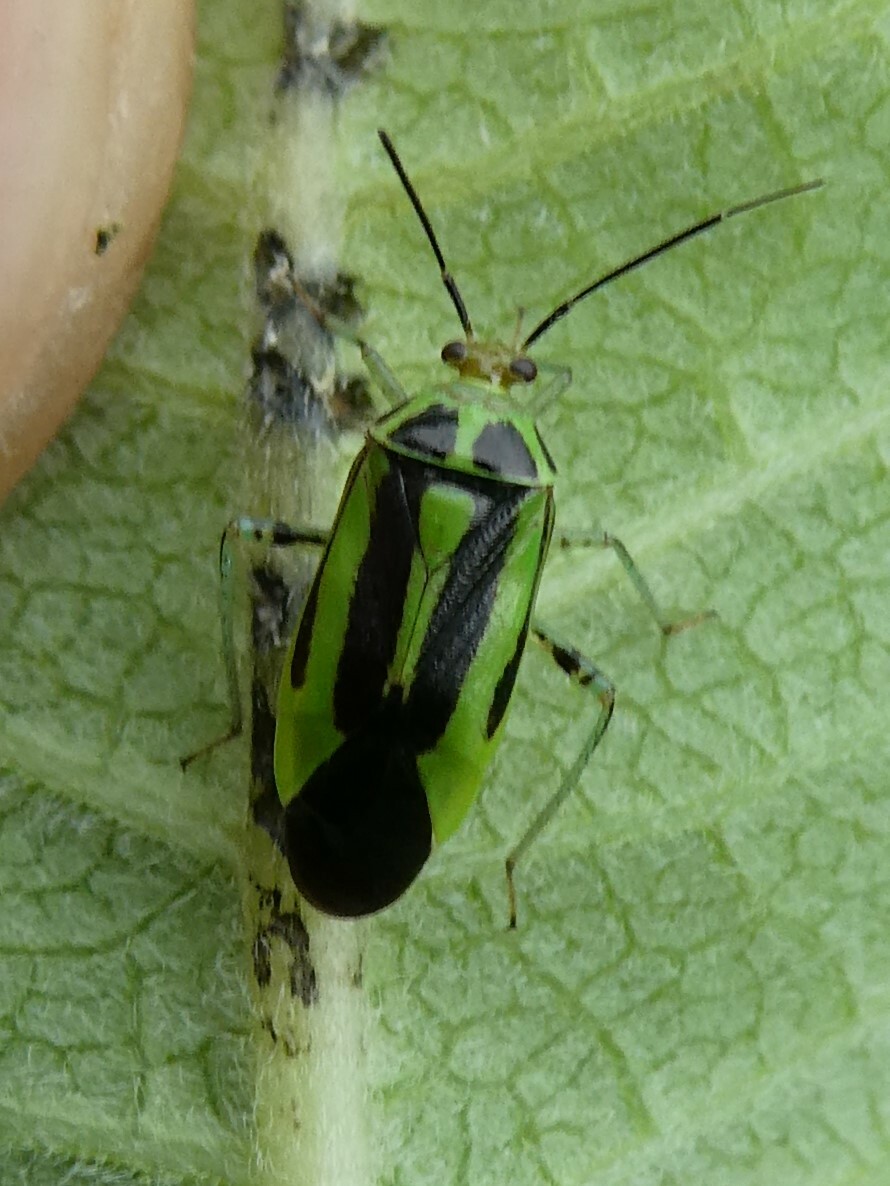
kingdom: Animalia
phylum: Arthropoda
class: Insecta
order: Hemiptera
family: Miridae
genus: Poecilocapsus
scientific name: Poecilocapsus lineatus
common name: Four-lined plant bug
